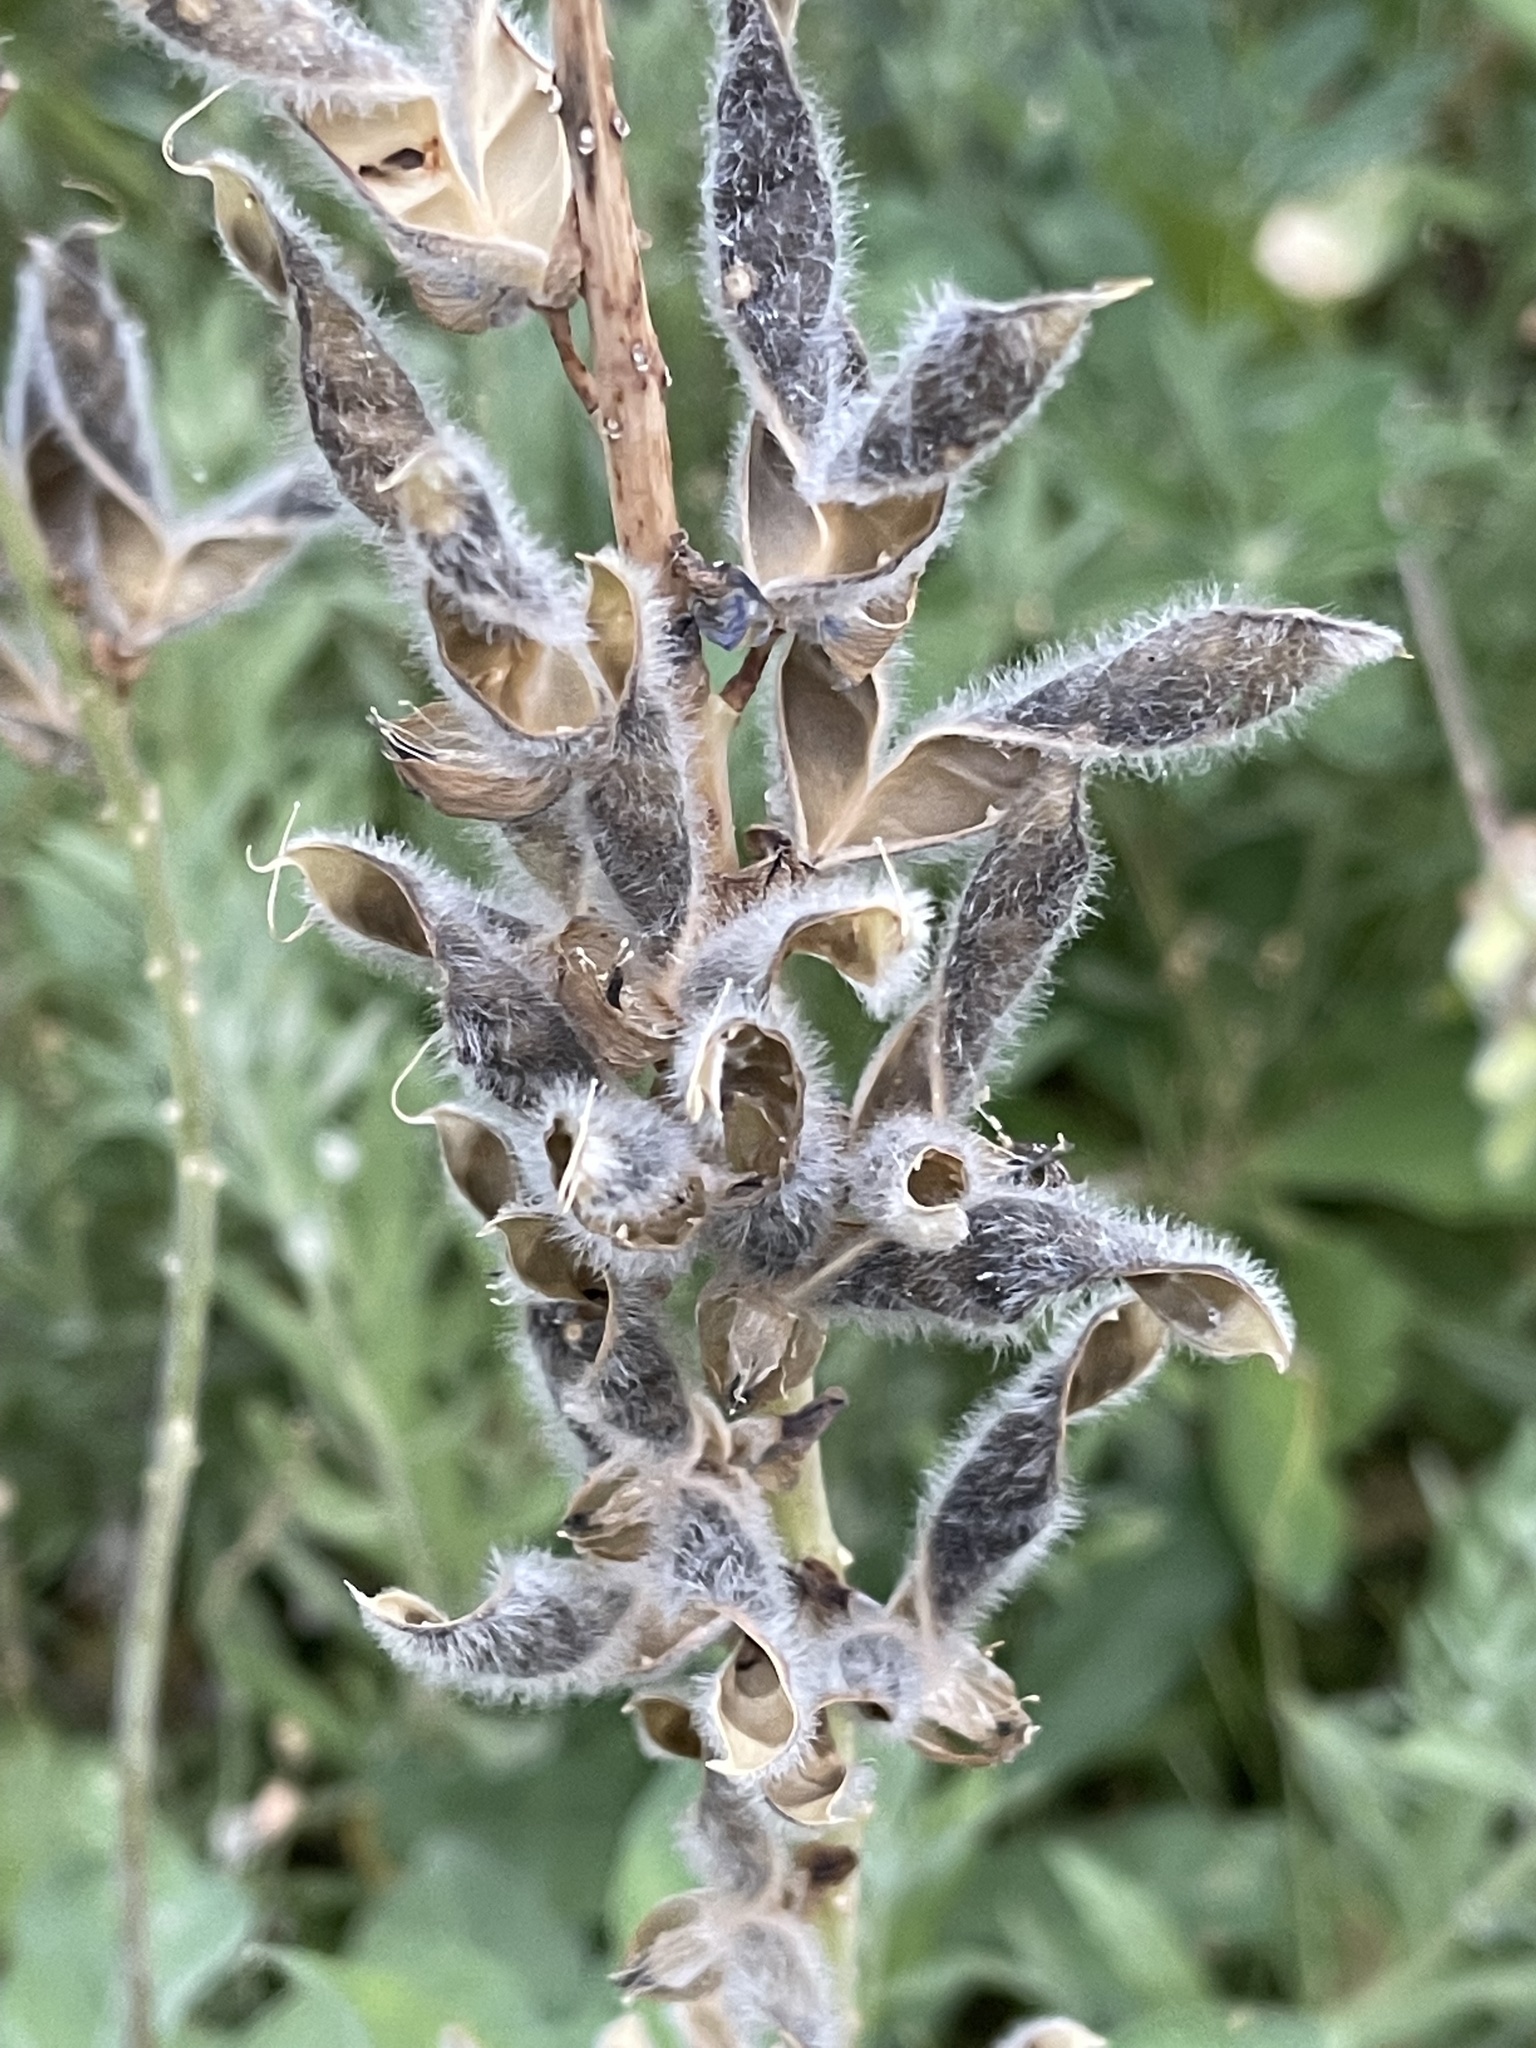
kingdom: Plantae
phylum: Tracheophyta
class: Magnoliopsida
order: Fabales
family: Fabaceae
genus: Lupinus
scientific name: Lupinus polyphyllus
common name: Garden lupin
